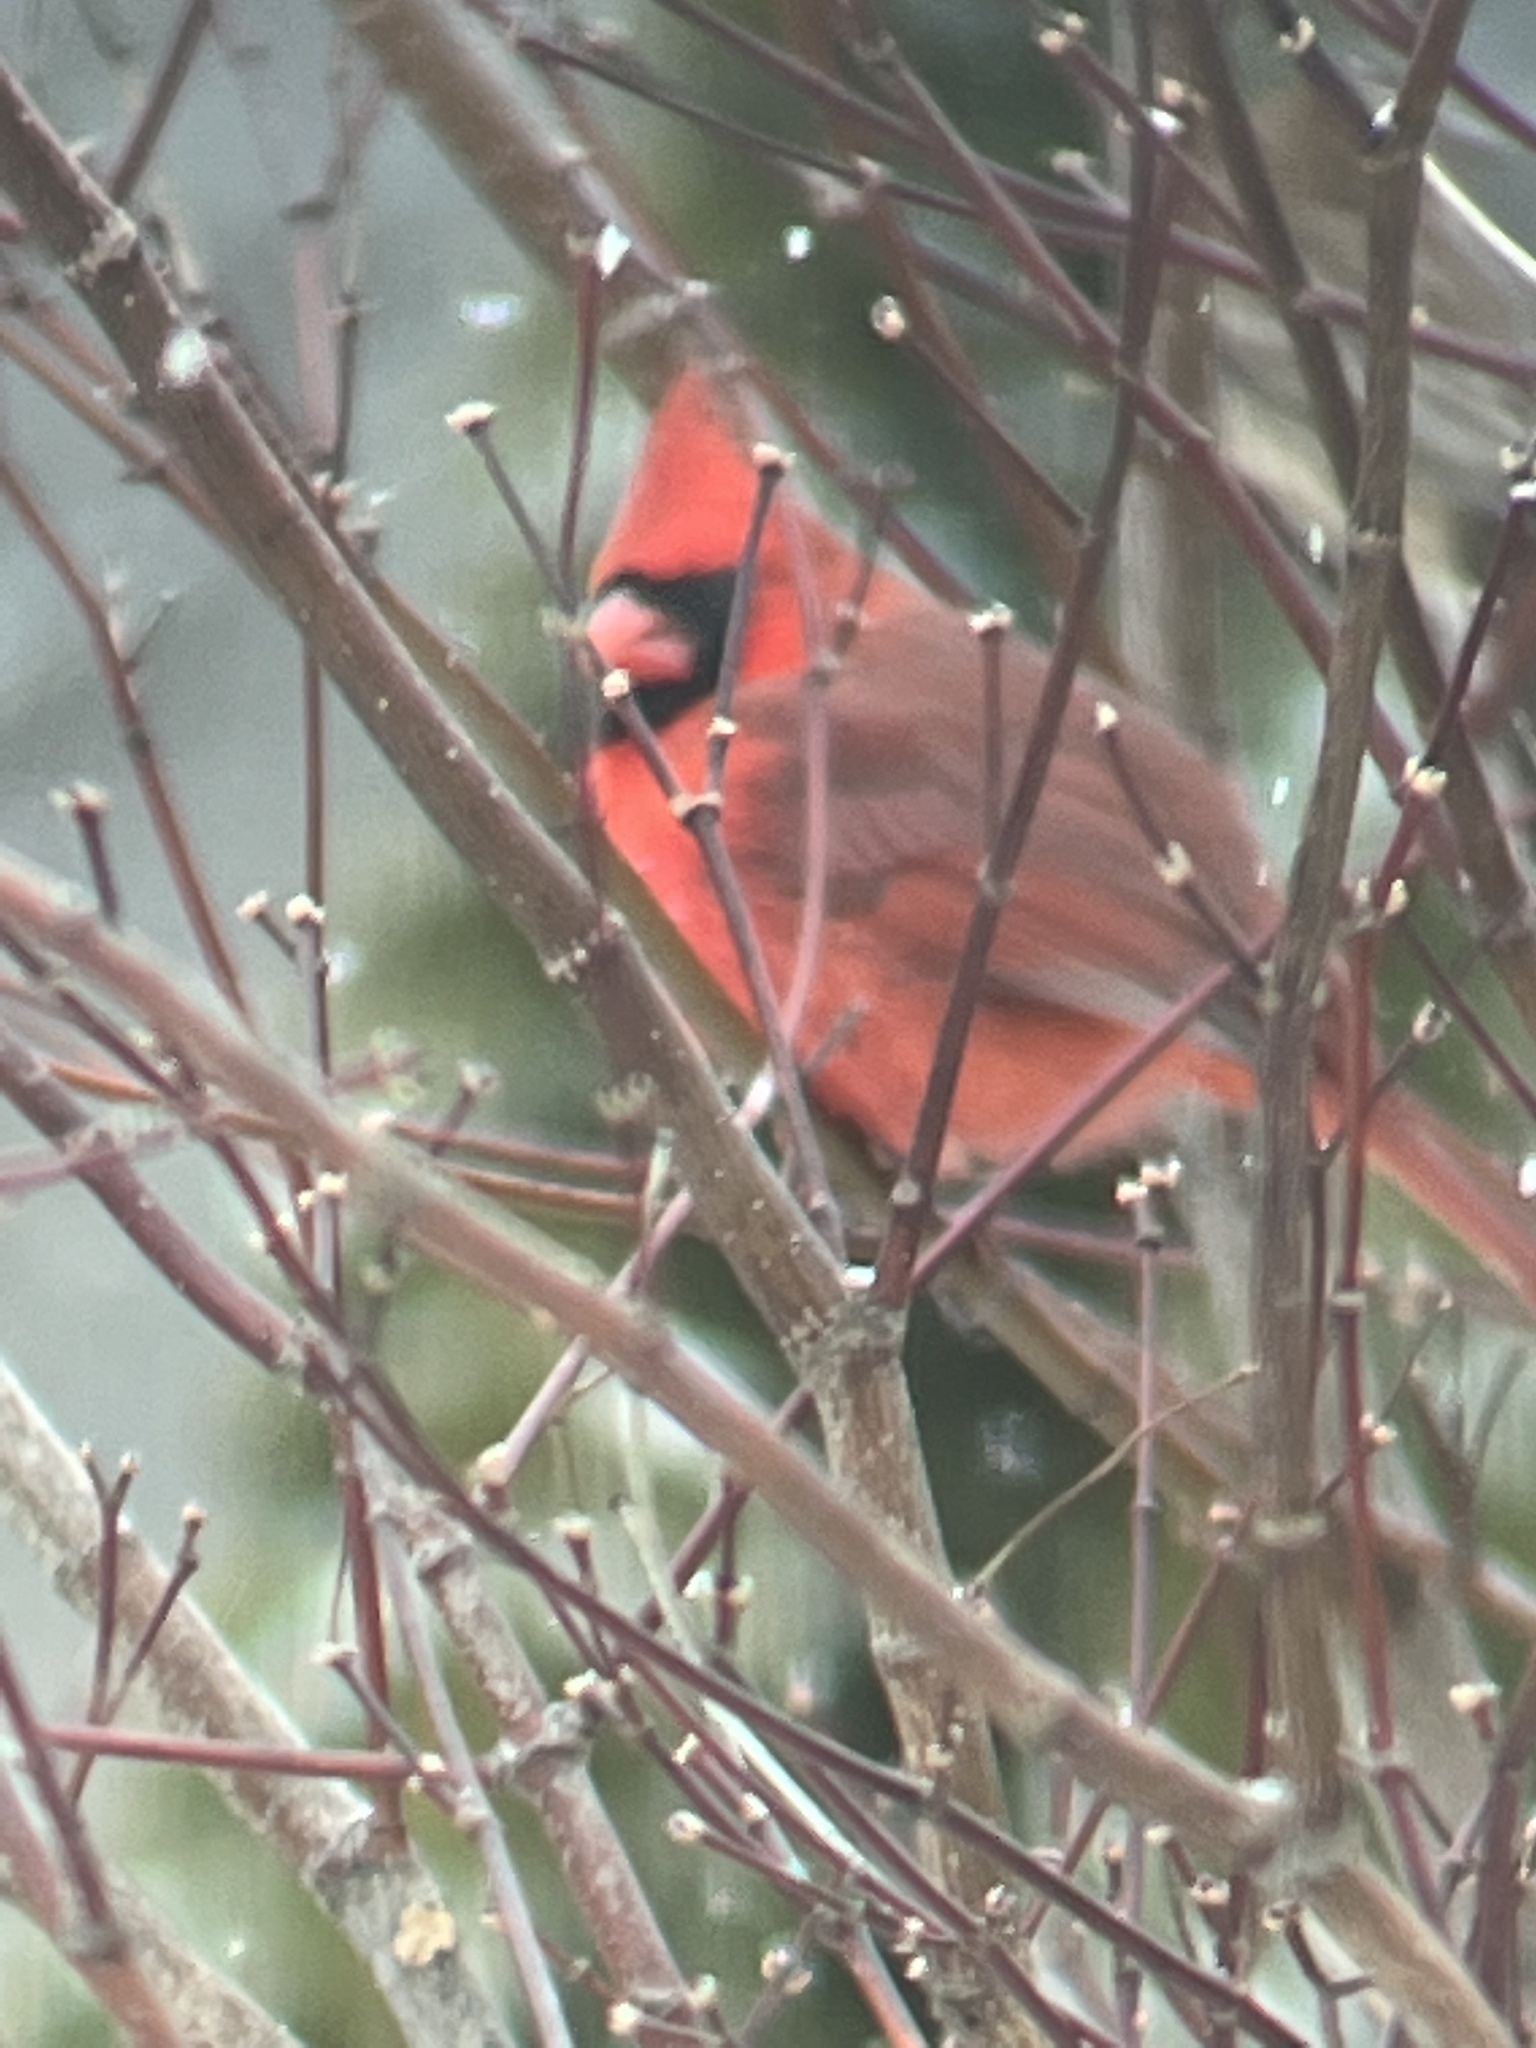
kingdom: Animalia
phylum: Chordata
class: Aves
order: Passeriformes
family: Cardinalidae
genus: Cardinalis
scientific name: Cardinalis cardinalis
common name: Northern cardinal
